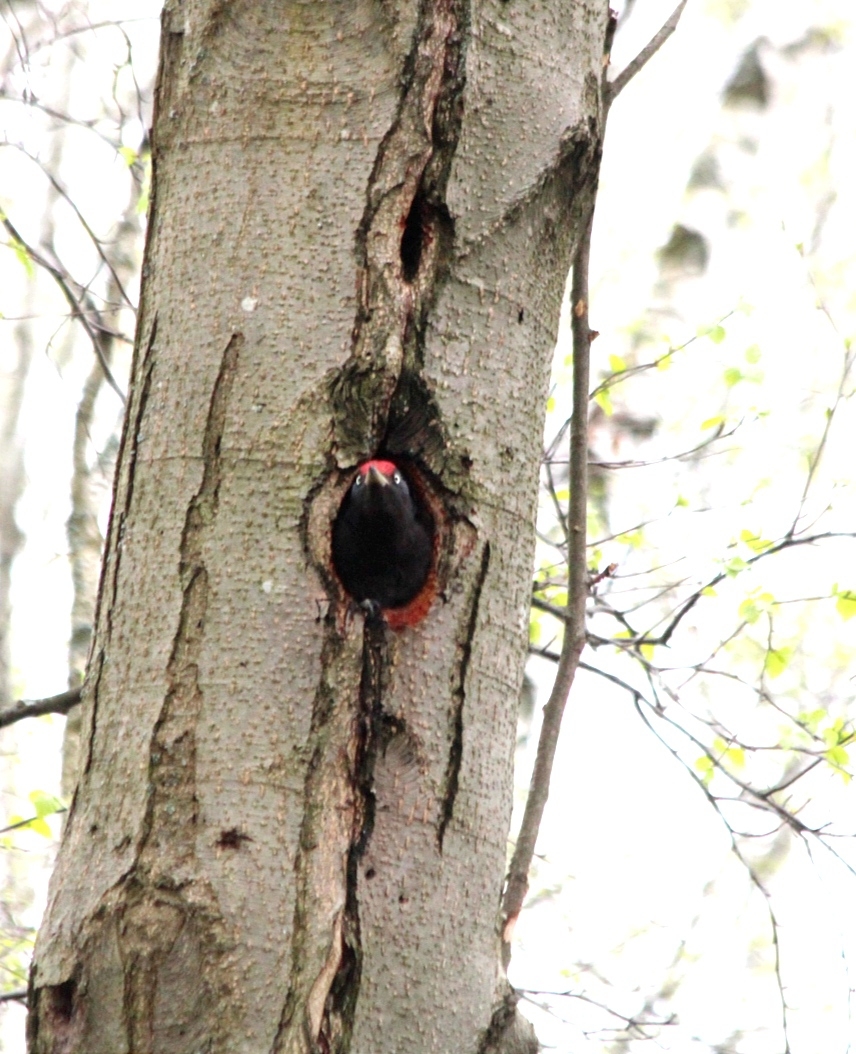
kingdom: Animalia
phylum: Chordata
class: Aves
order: Piciformes
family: Picidae
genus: Dryocopus
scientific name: Dryocopus martius
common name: Black woodpecker
